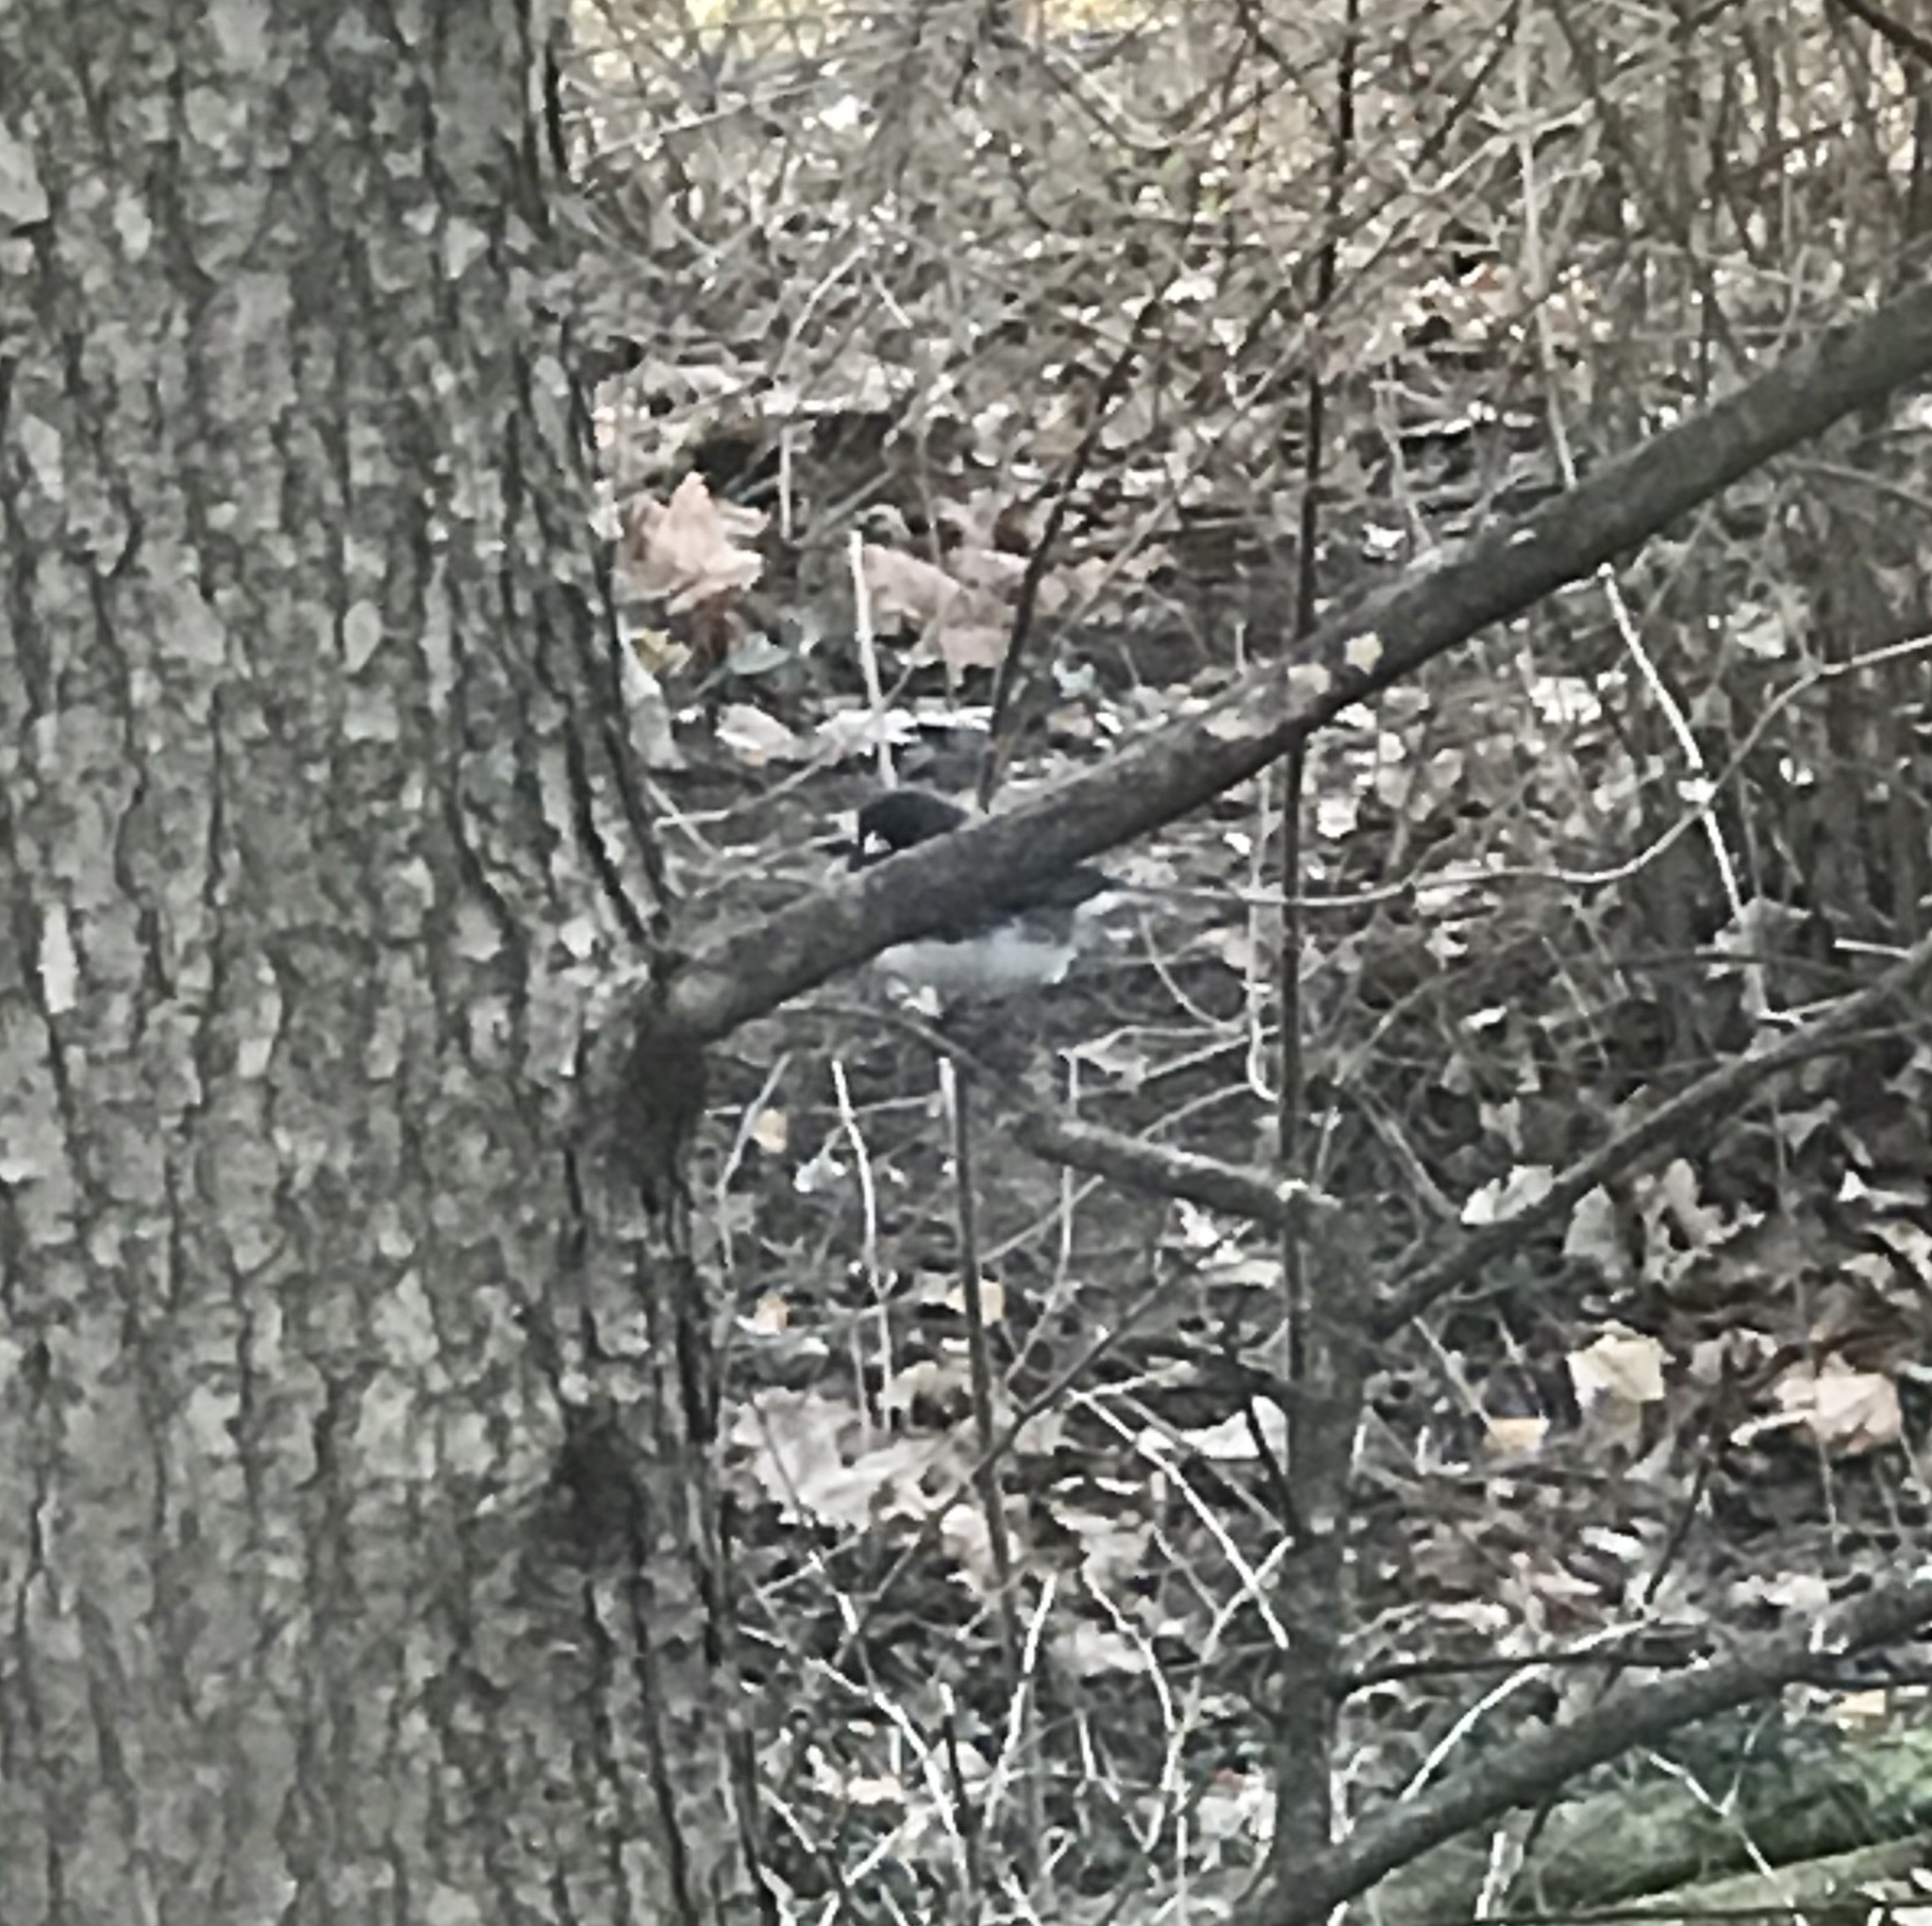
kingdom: Animalia
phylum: Chordata
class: Aves
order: Passeriformes
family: Passerellidae
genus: Junco
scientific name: Junco hyemalis
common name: Dark-eyed junco
